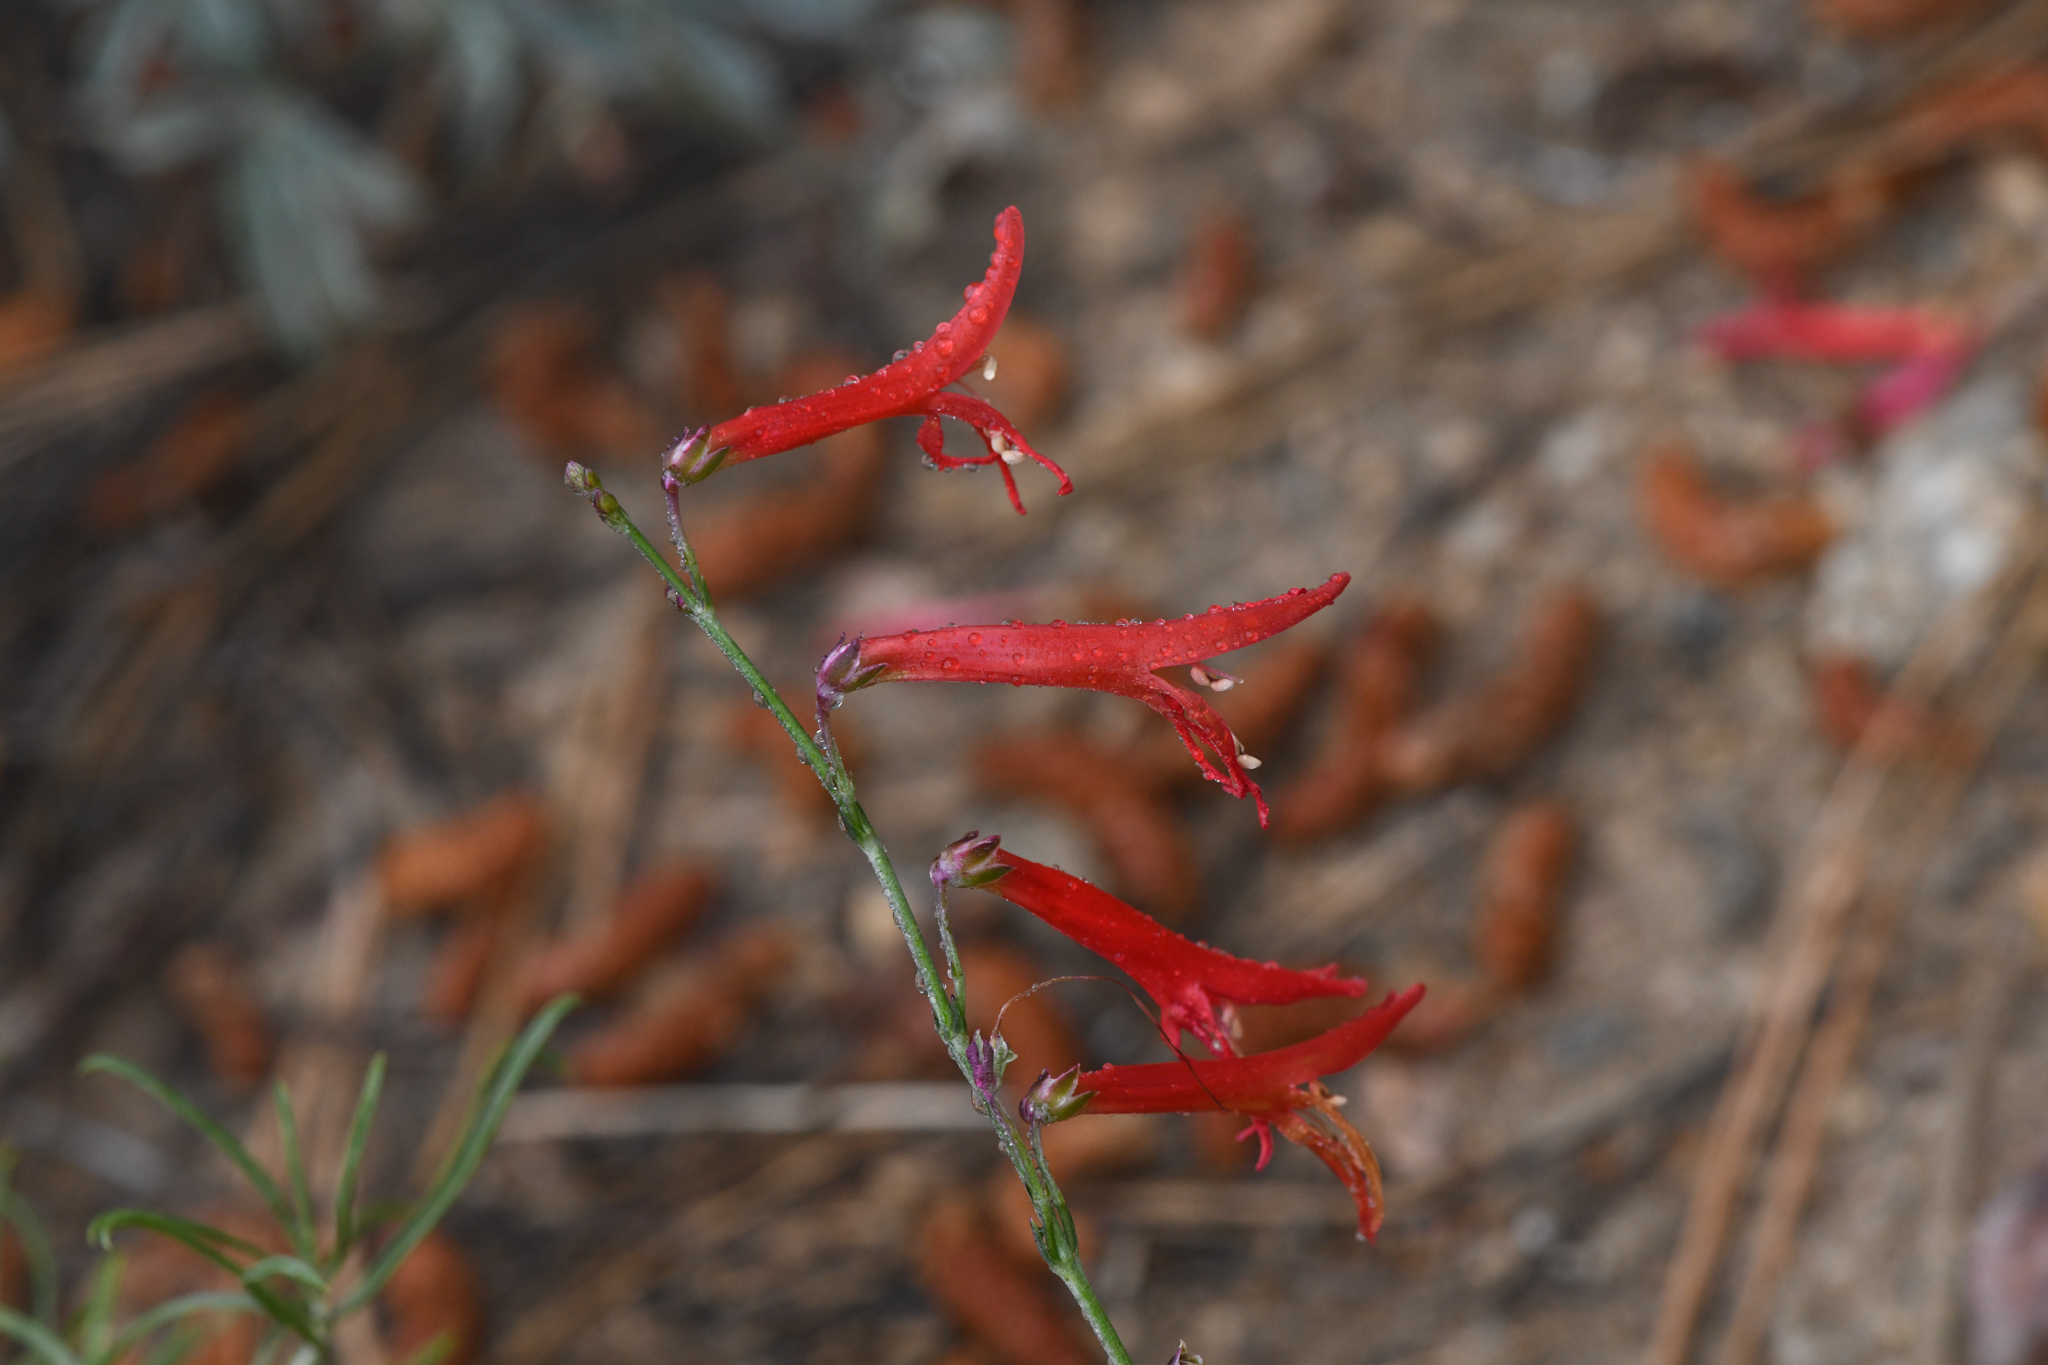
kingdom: Plantae
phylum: Tracheophyta
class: Magnoliopsida
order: Lamiales
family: Plantaginaceae
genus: Penstemon
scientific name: Penstemon labrosus
